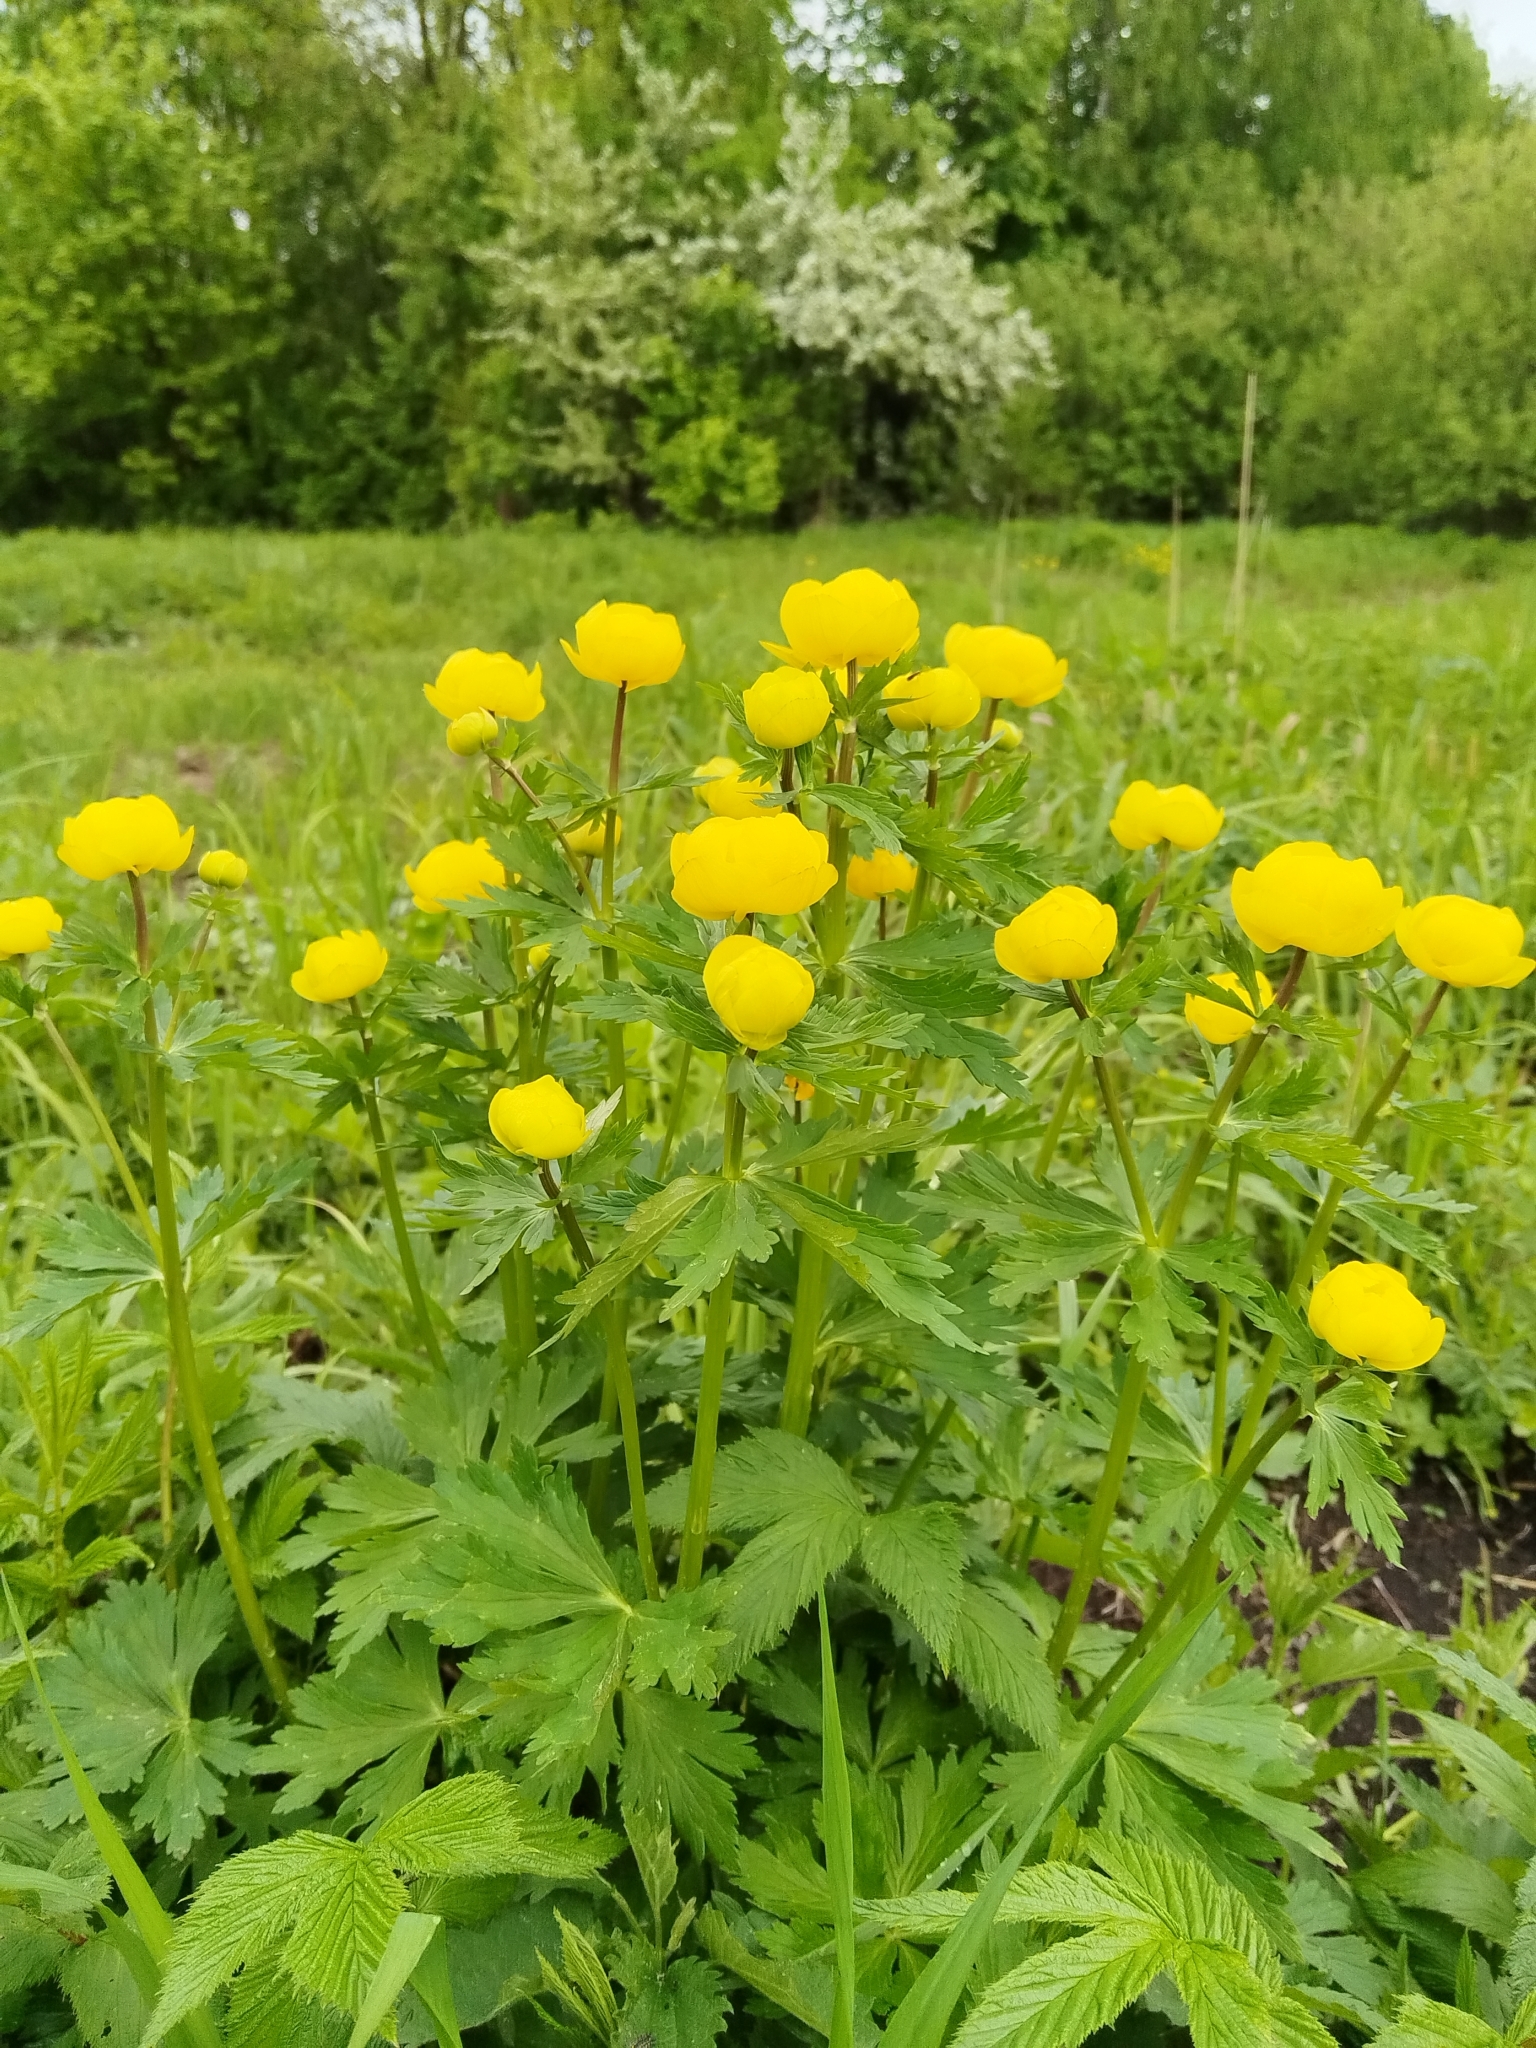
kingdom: Plantae
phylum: Tracheophyta
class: Magnoliopsida
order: Ranunculales
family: Ranunculaceae
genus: Trollius
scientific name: Trollius europaeus
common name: European globeflower
